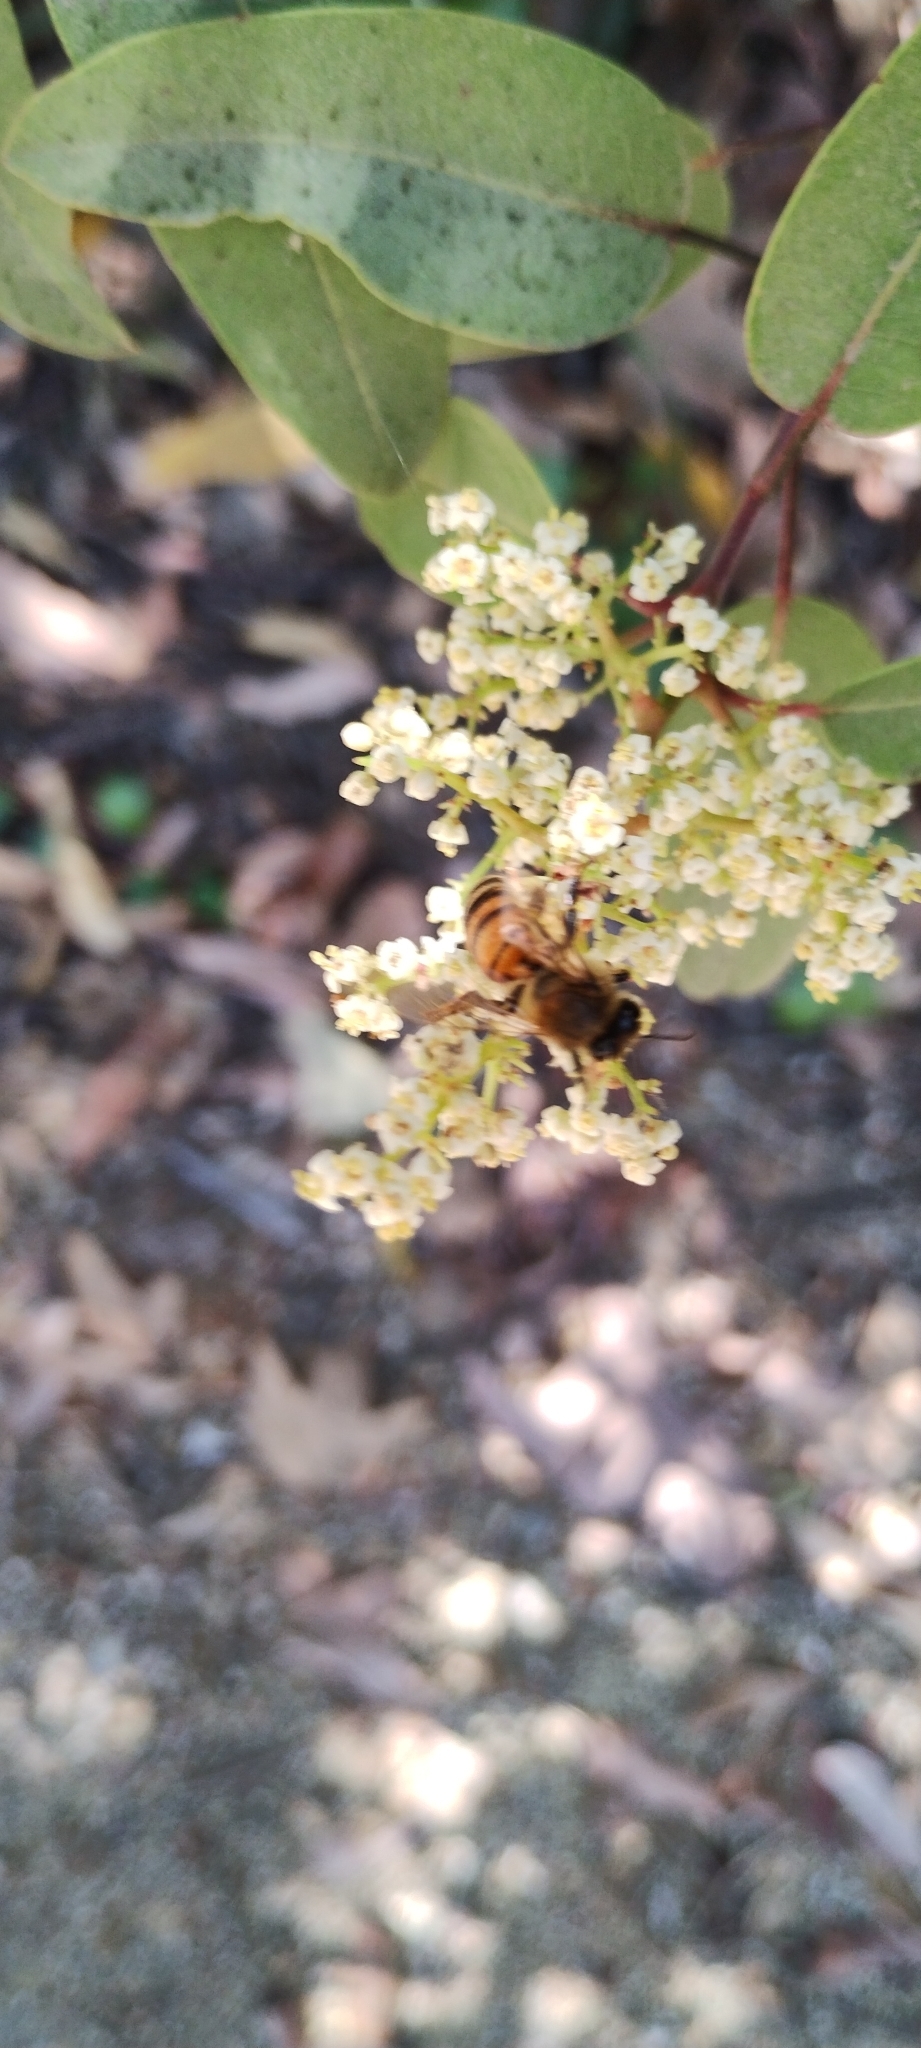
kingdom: Animalia
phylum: Arthropoda
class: Insecta
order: Hymenoptera
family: Apidae
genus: Apis
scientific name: Apis mellifera
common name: Honey bee
